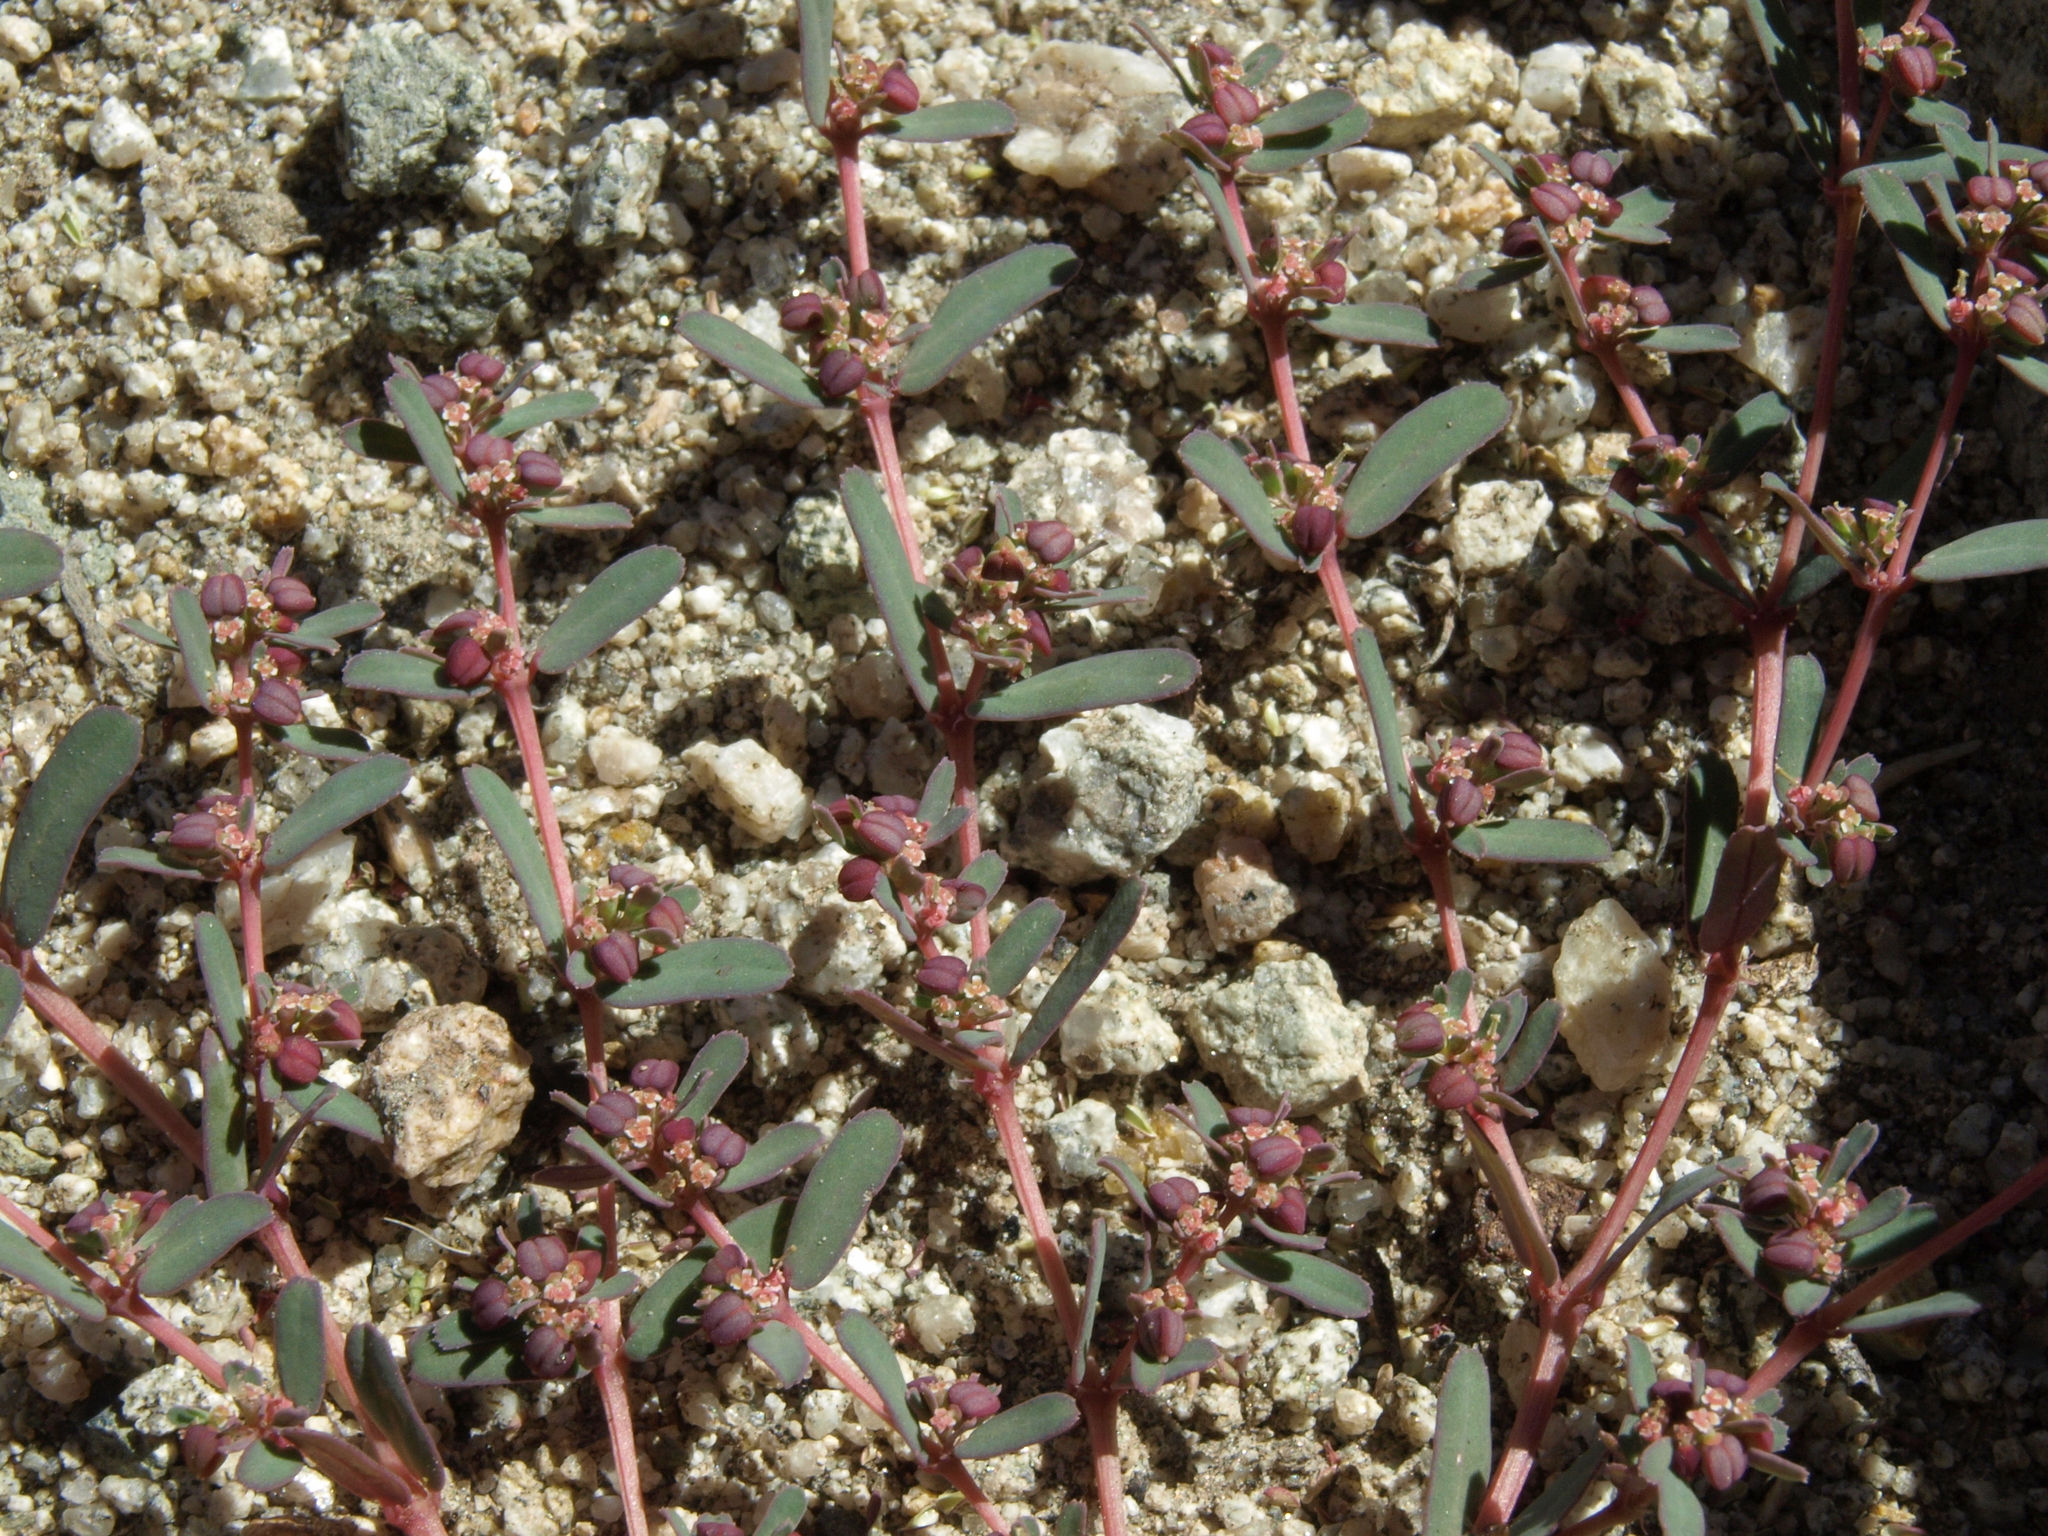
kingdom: Plantae
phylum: Tracheophyta
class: Magnoliopsida
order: Malpighiales
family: Euphorbiaceae
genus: Euphorbia
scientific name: Euphorbia serpillifolia
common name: Thyme-leaf spurge
